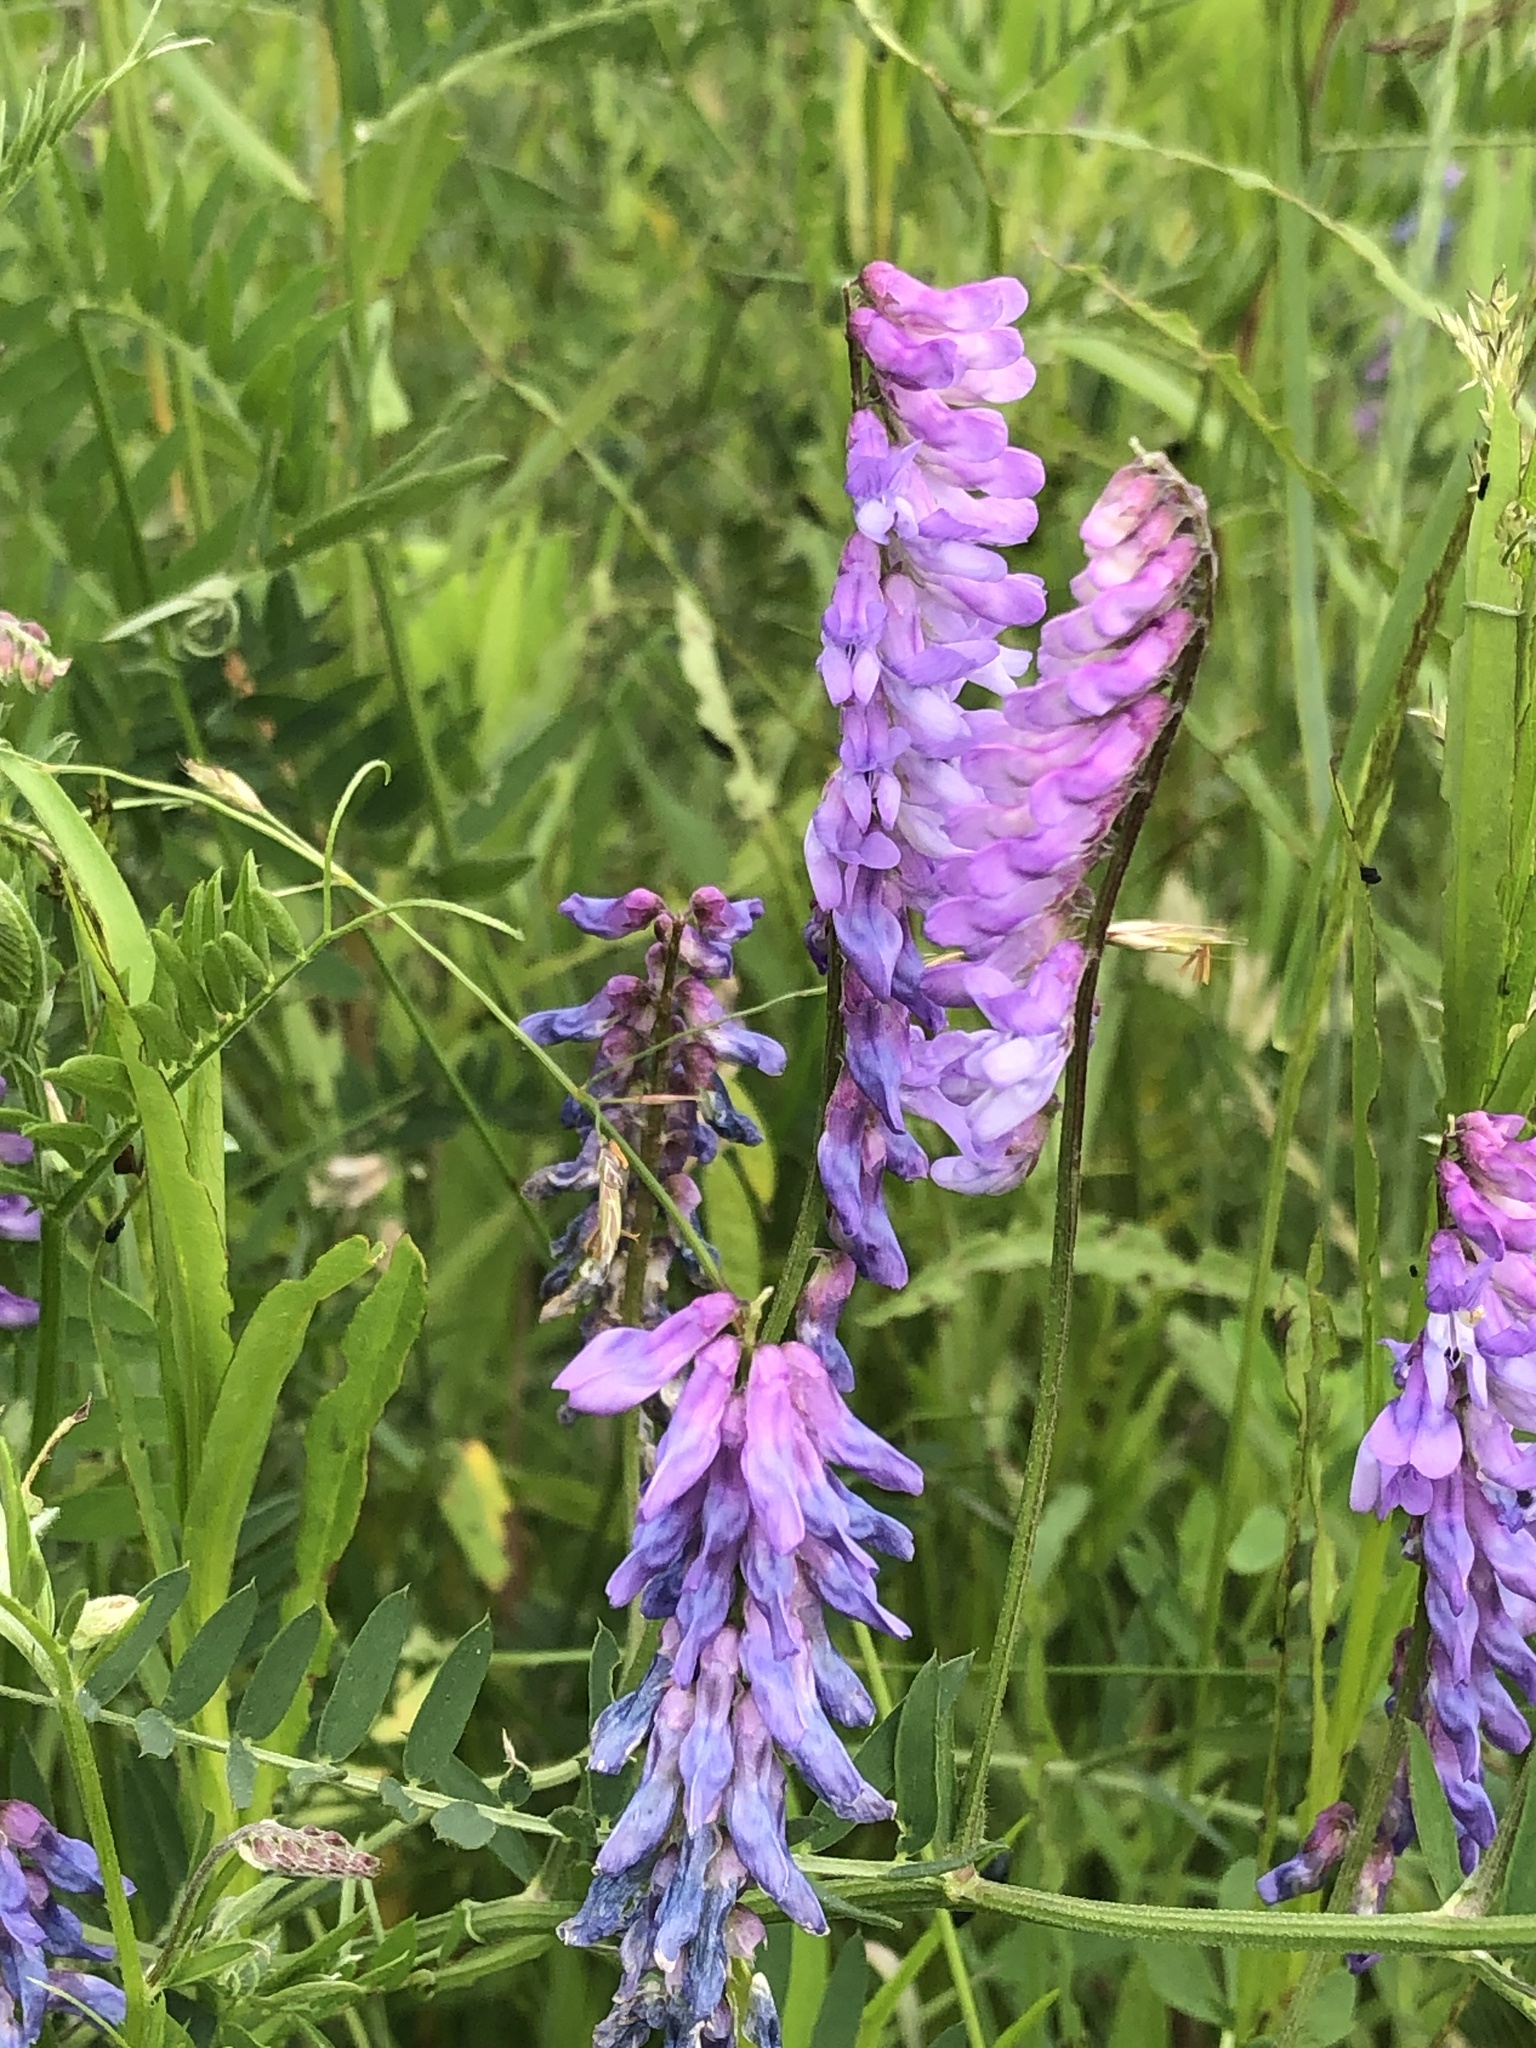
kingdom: Plantae
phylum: Tracheophyta
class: Magnoliopsida
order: Fabales
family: Fabaceae
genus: Vicia
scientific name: Vicia cracca
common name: Bird vetch
